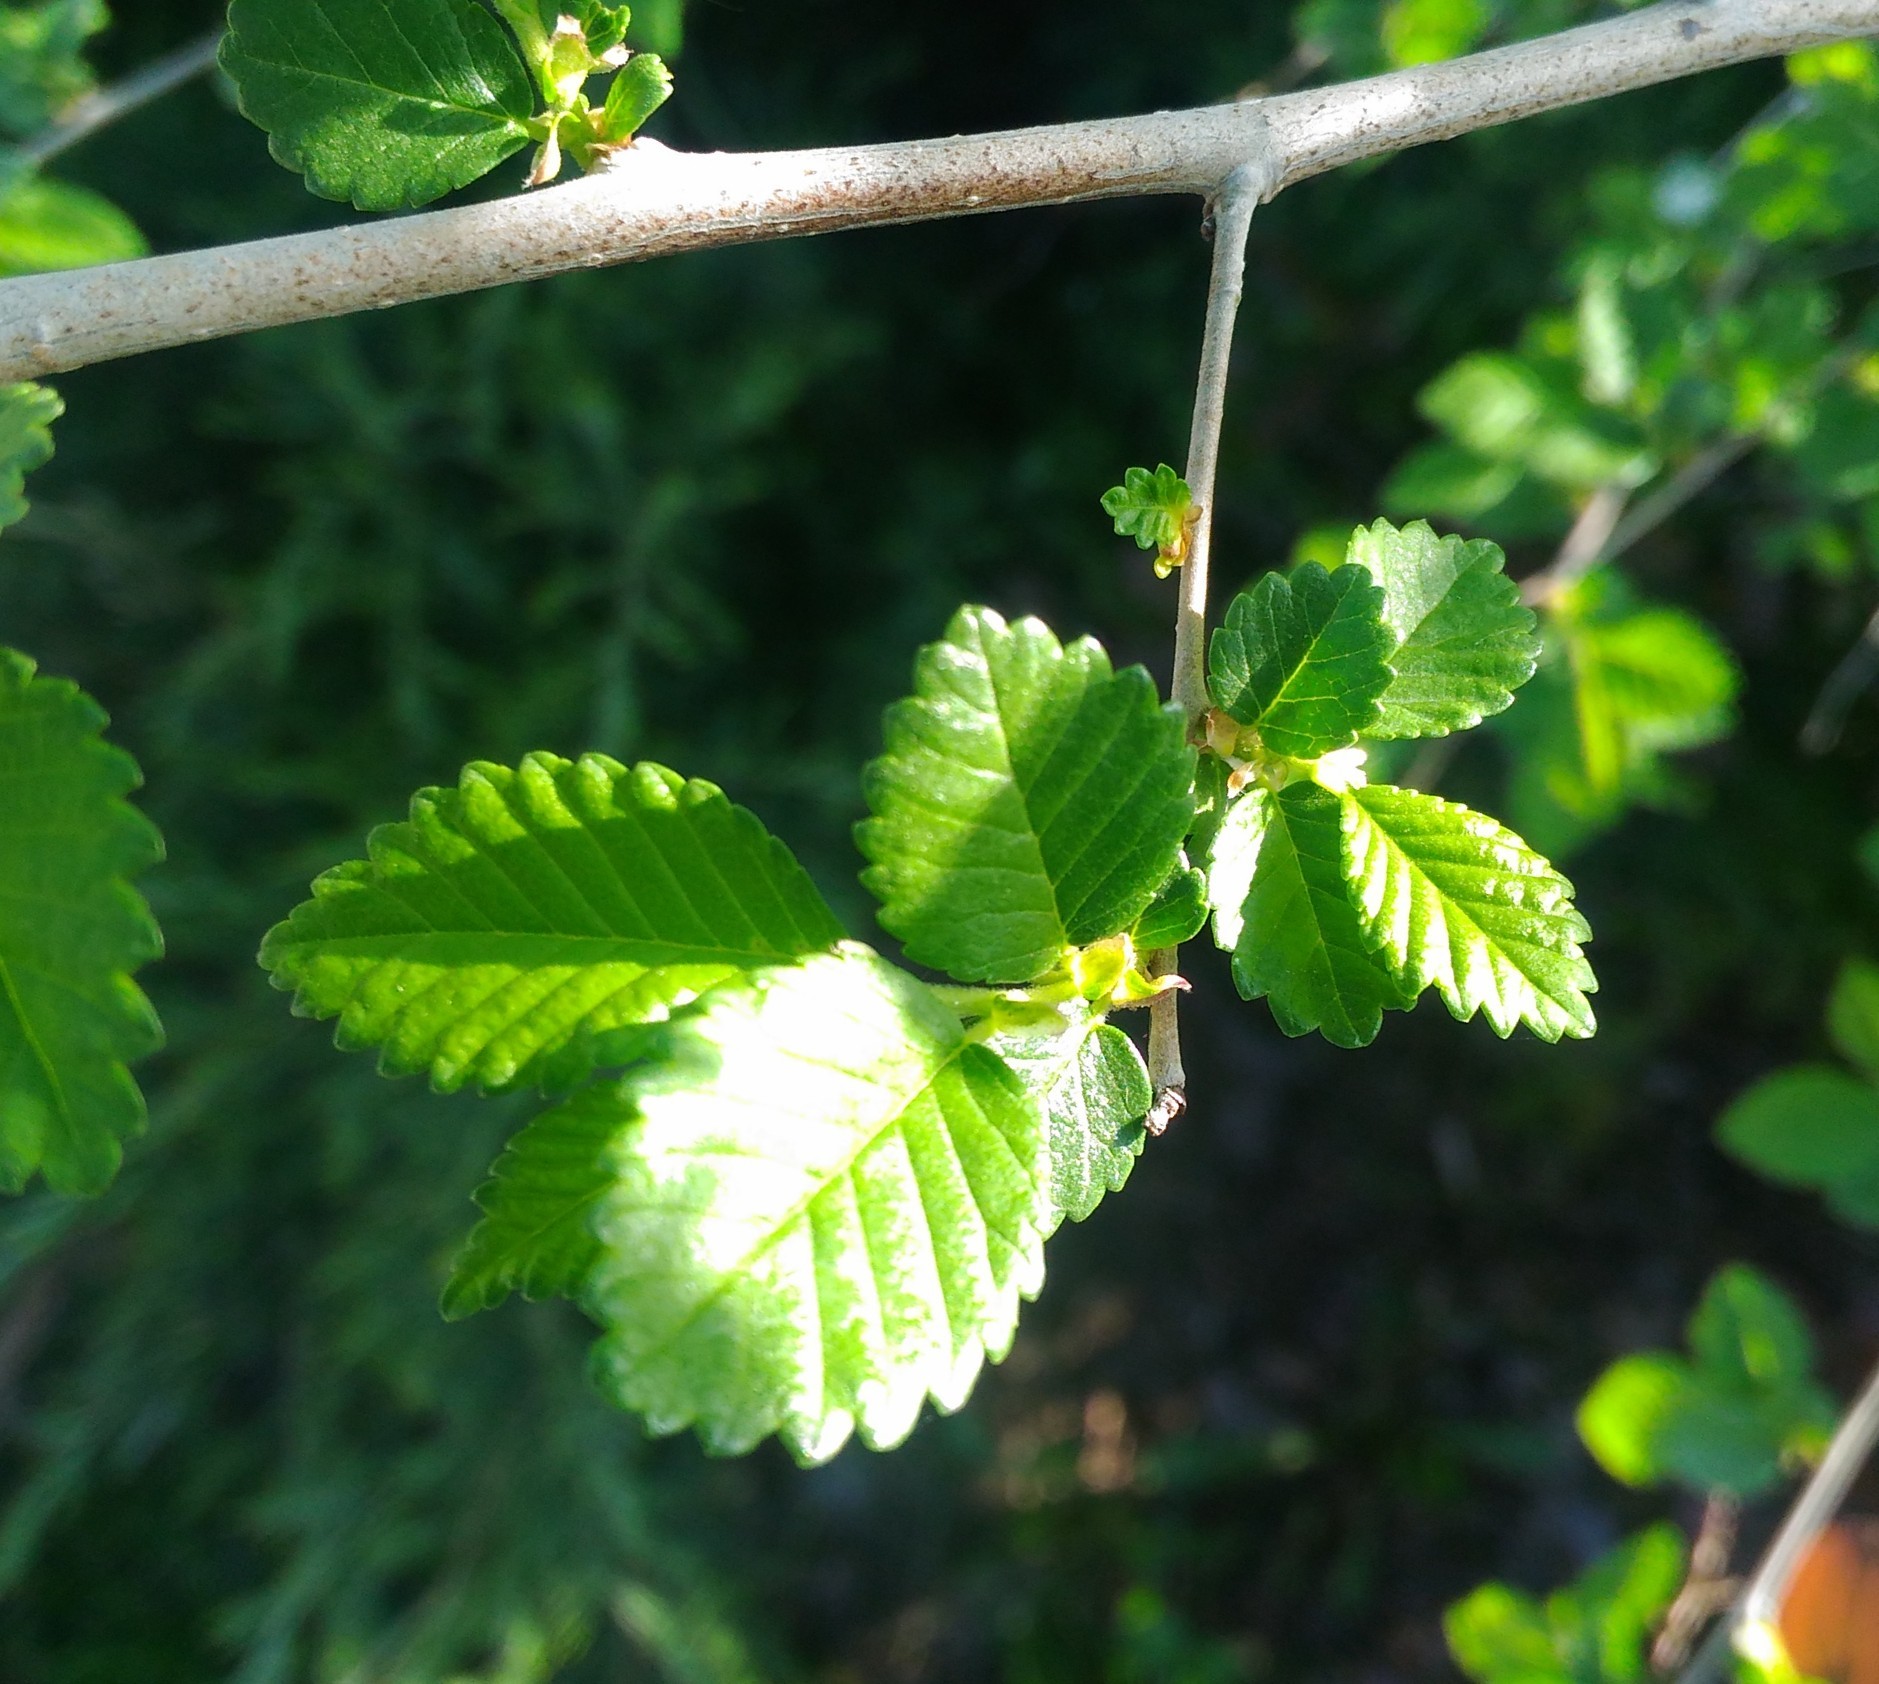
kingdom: Plantae
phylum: Tracheophyta
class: Magnoliopsida
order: Rosales
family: Ulmaceae
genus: Ulmus
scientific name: Ulmus pumila
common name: Siberian elm
